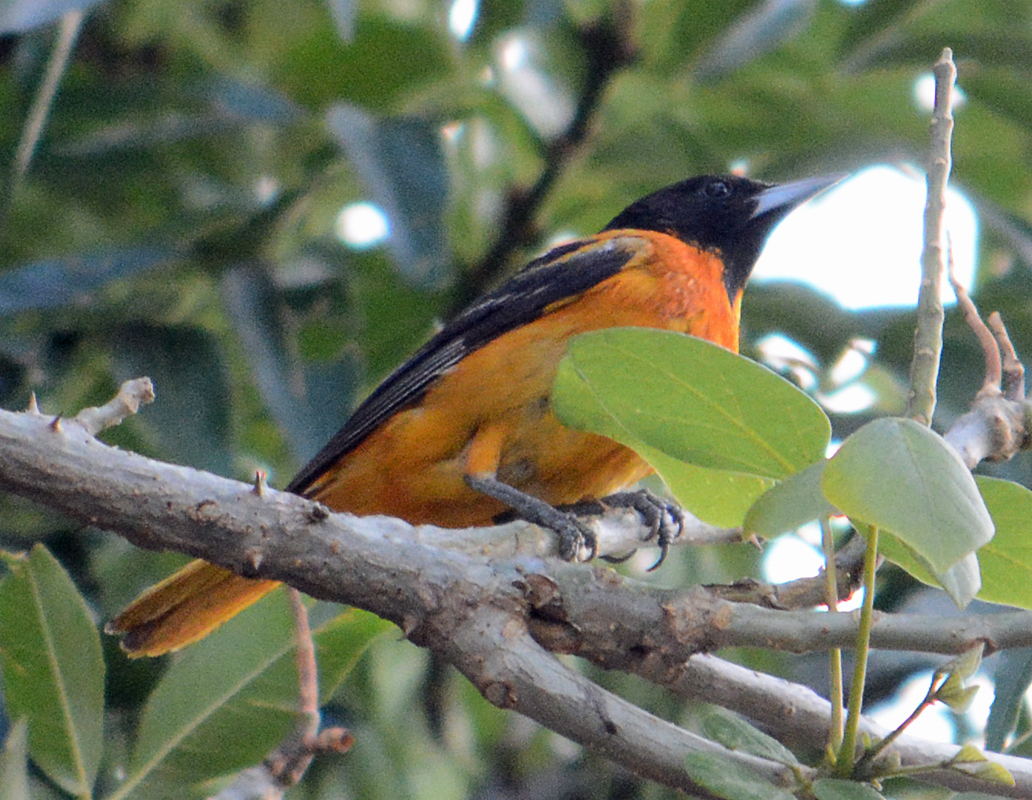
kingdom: Animalia
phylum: Chordata
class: Aves
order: Passeriformes
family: Icteridae
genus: Icterus
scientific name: Icterus galbula
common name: Baltimore oriole
